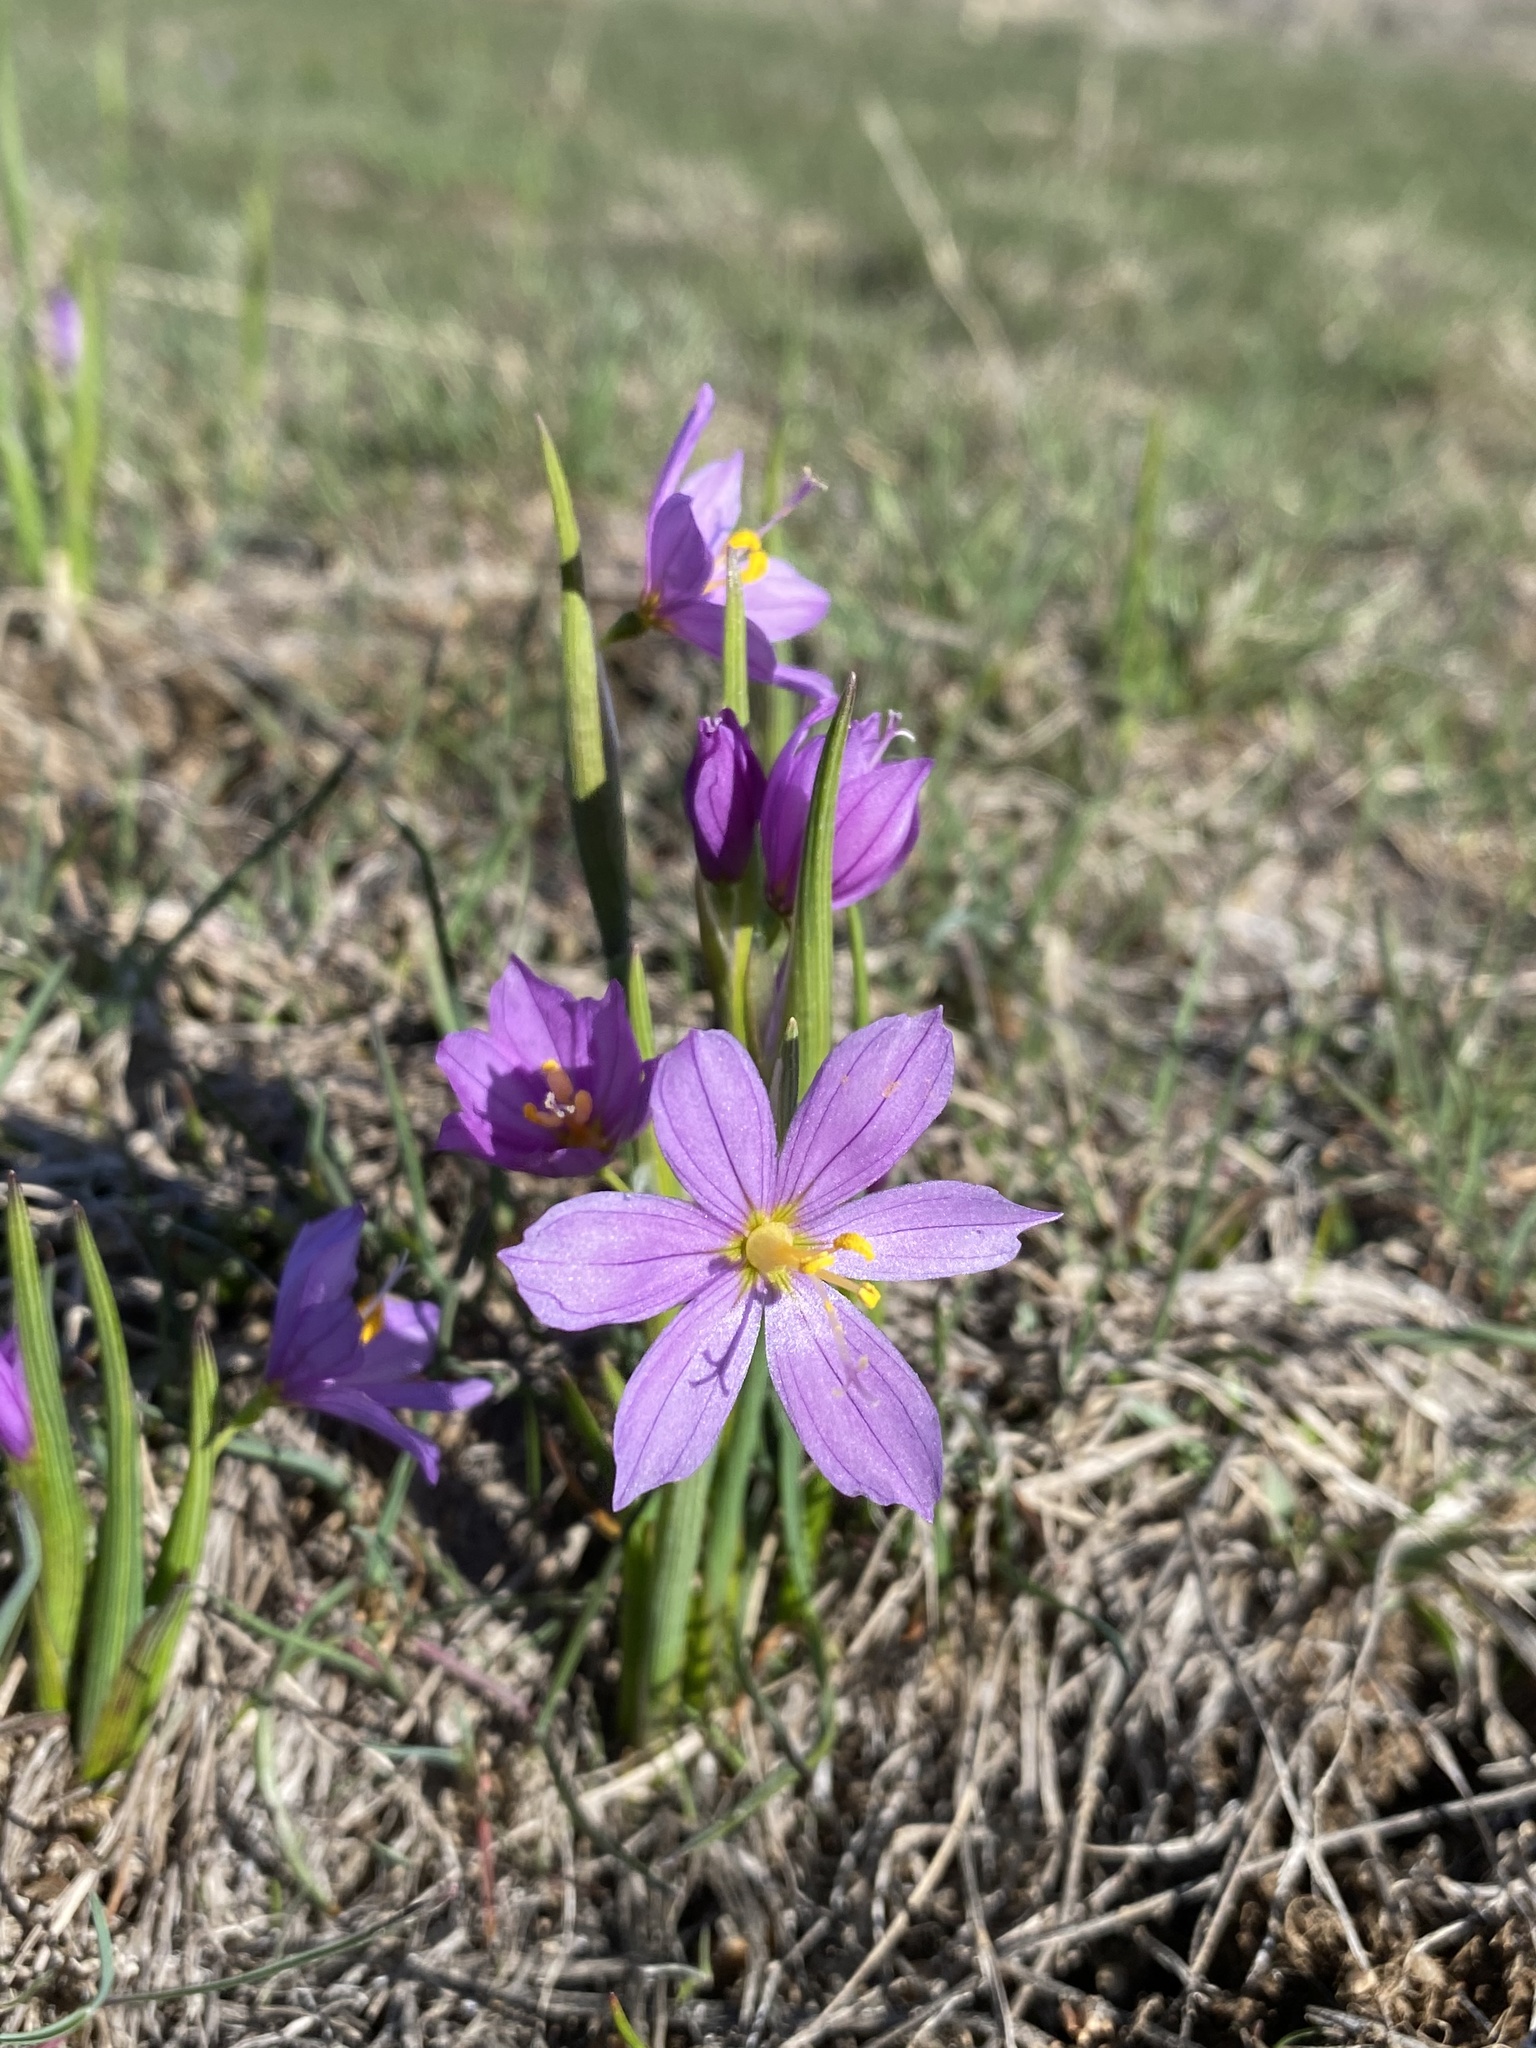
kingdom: Plantae
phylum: Tracheophyta
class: Liliopsida
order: Asparagales
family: Iridaceae
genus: Olsynium
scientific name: Olsynium douglasii
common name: Douglas' grasswidow
